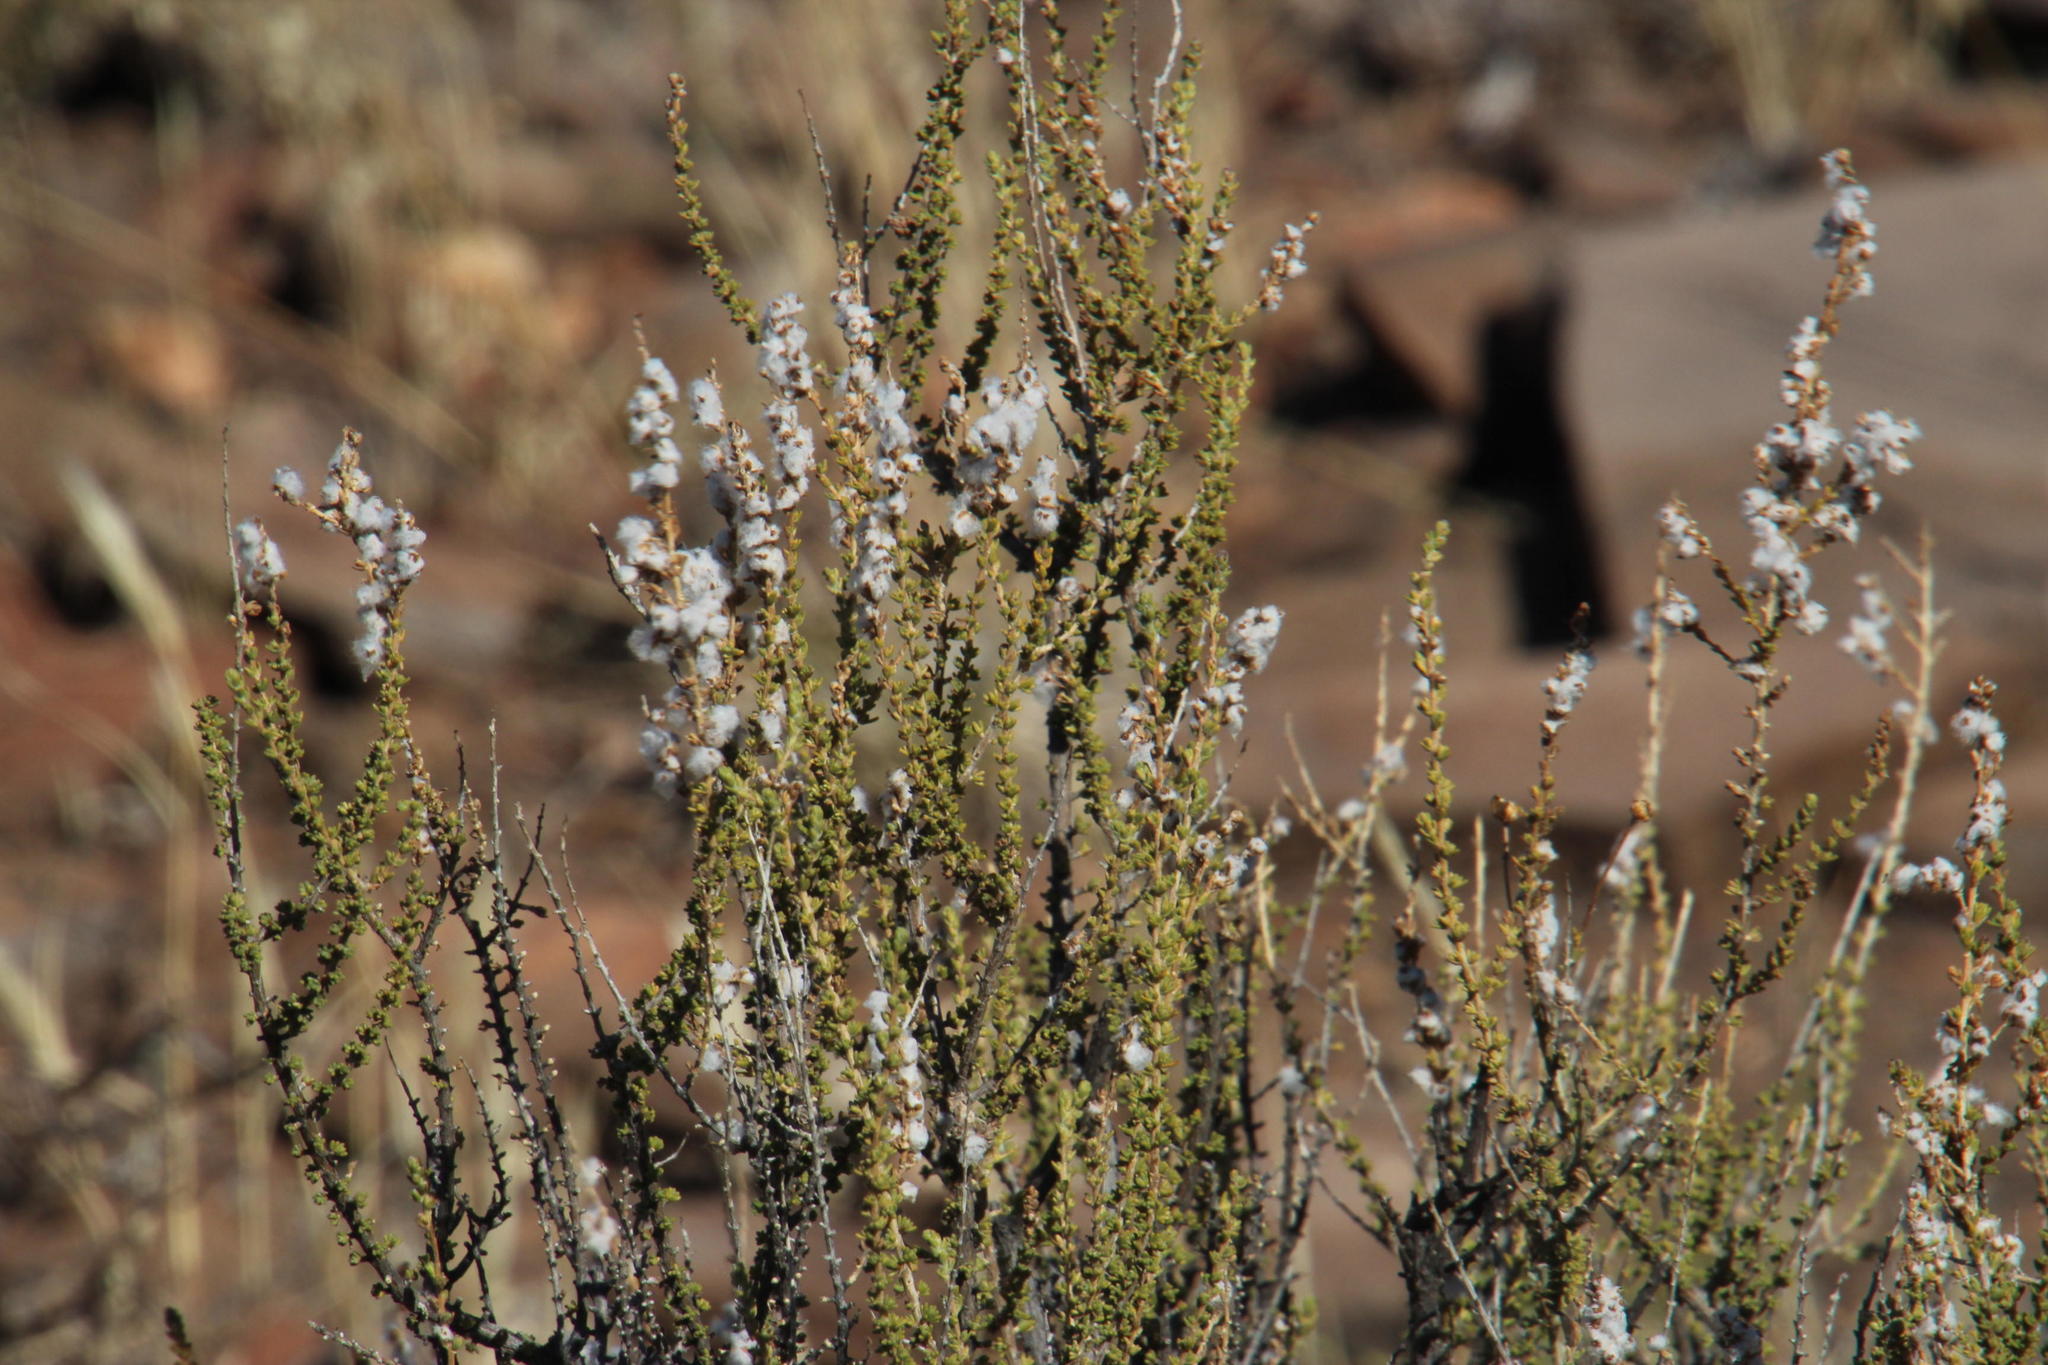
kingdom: Plantae
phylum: Tracheophyta
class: Magnoliopsida
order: Asterales
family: Asteraceae
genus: Eriocephalus
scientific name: Eriocephalus ericoides
